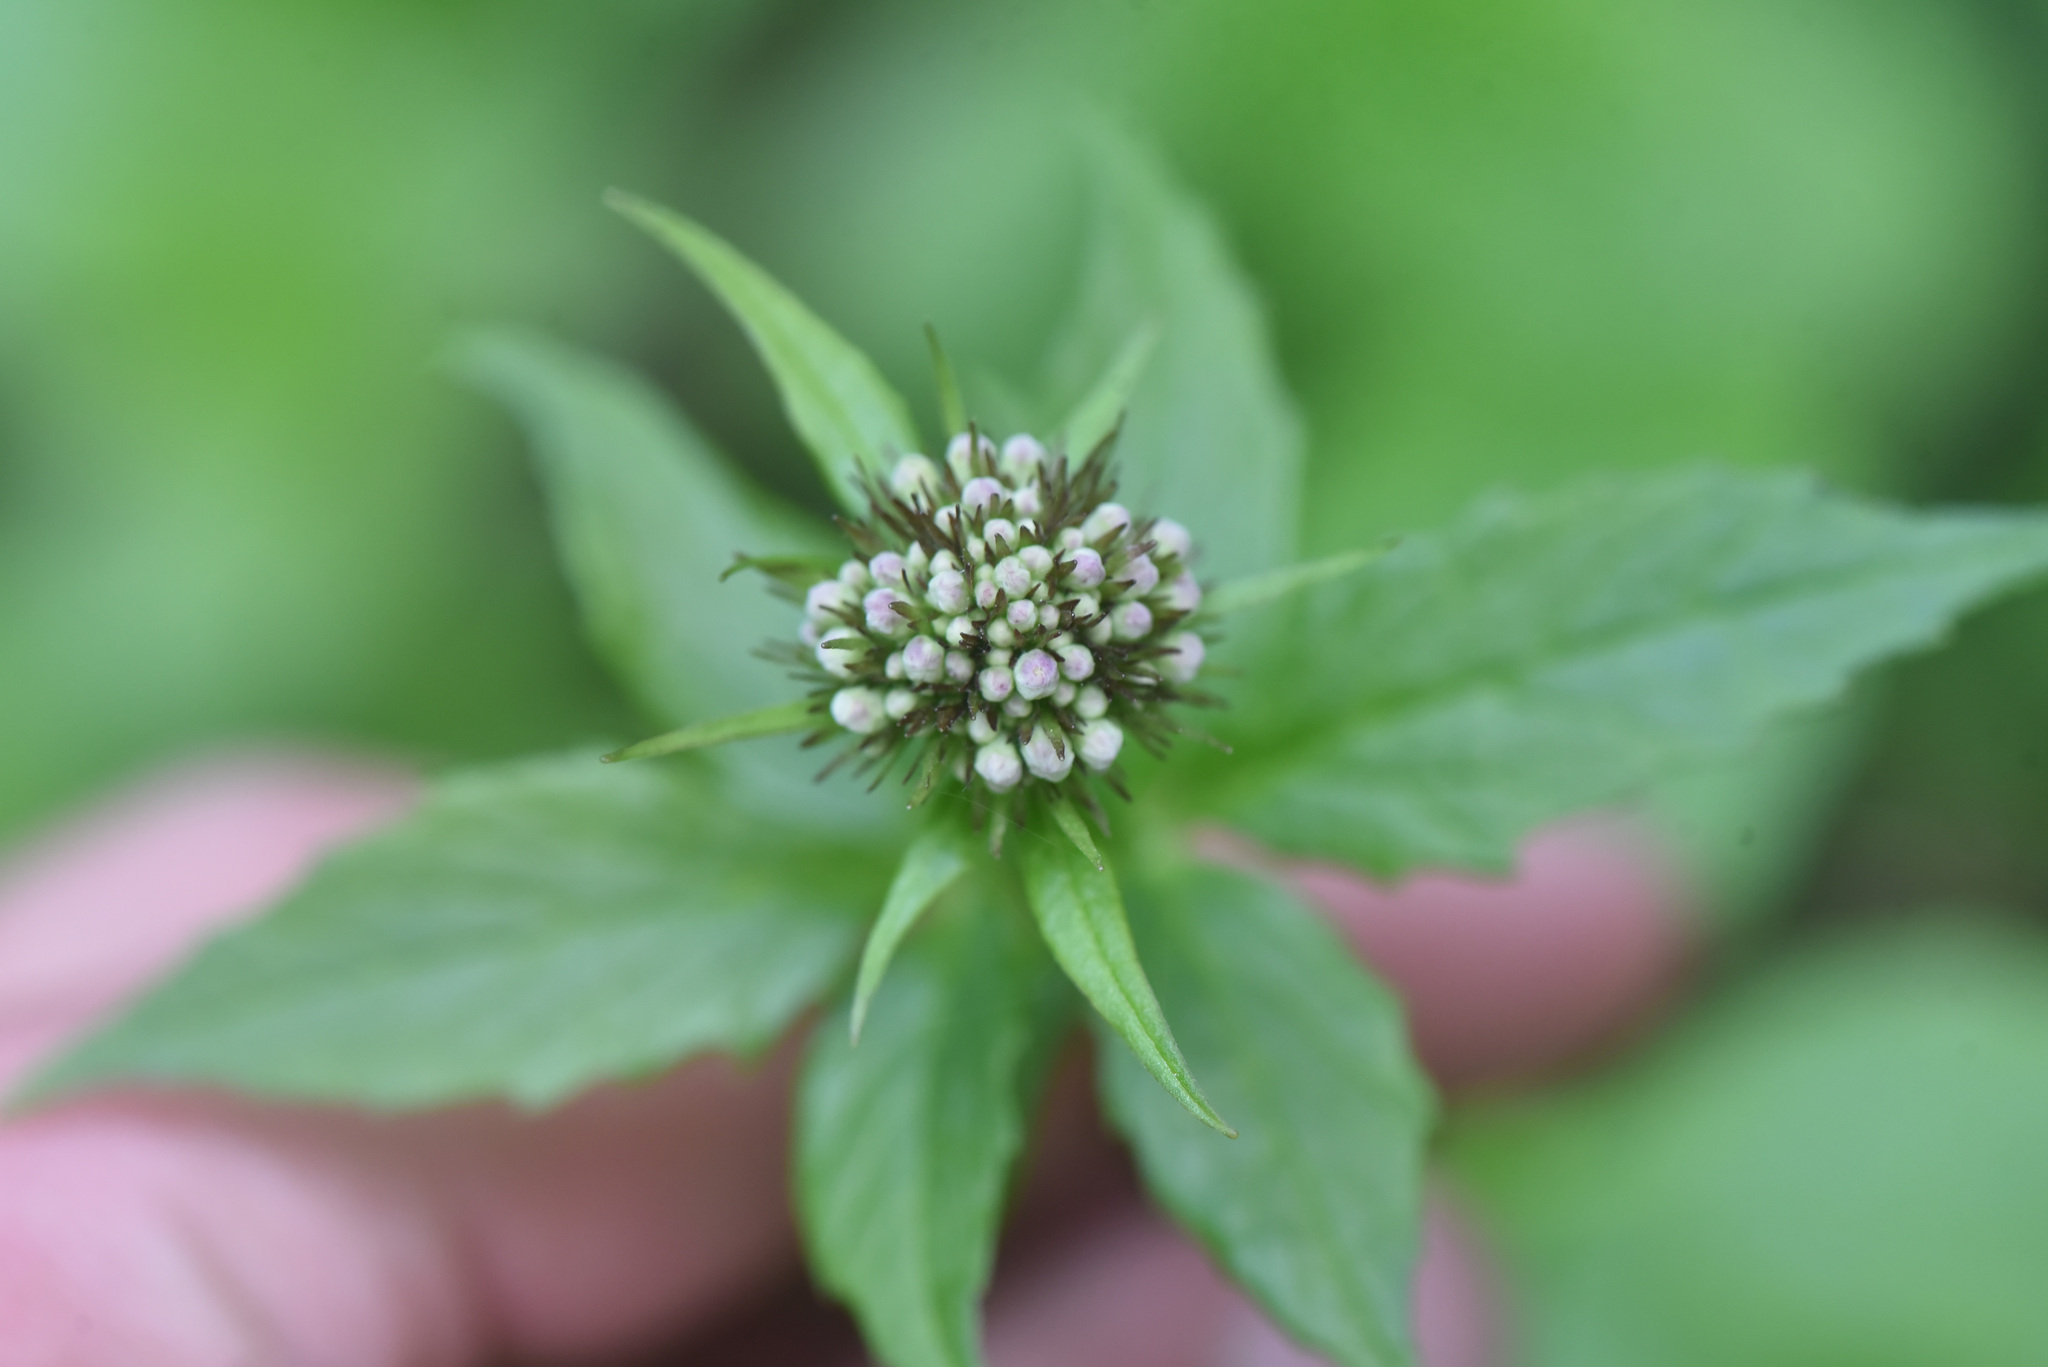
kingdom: Plantae
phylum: Tracheophyta
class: Magnoliopsida
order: Dipsacales
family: Caprifoliaceae
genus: Valeriana
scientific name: Valeriana sitchensis
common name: Pacific valerian
